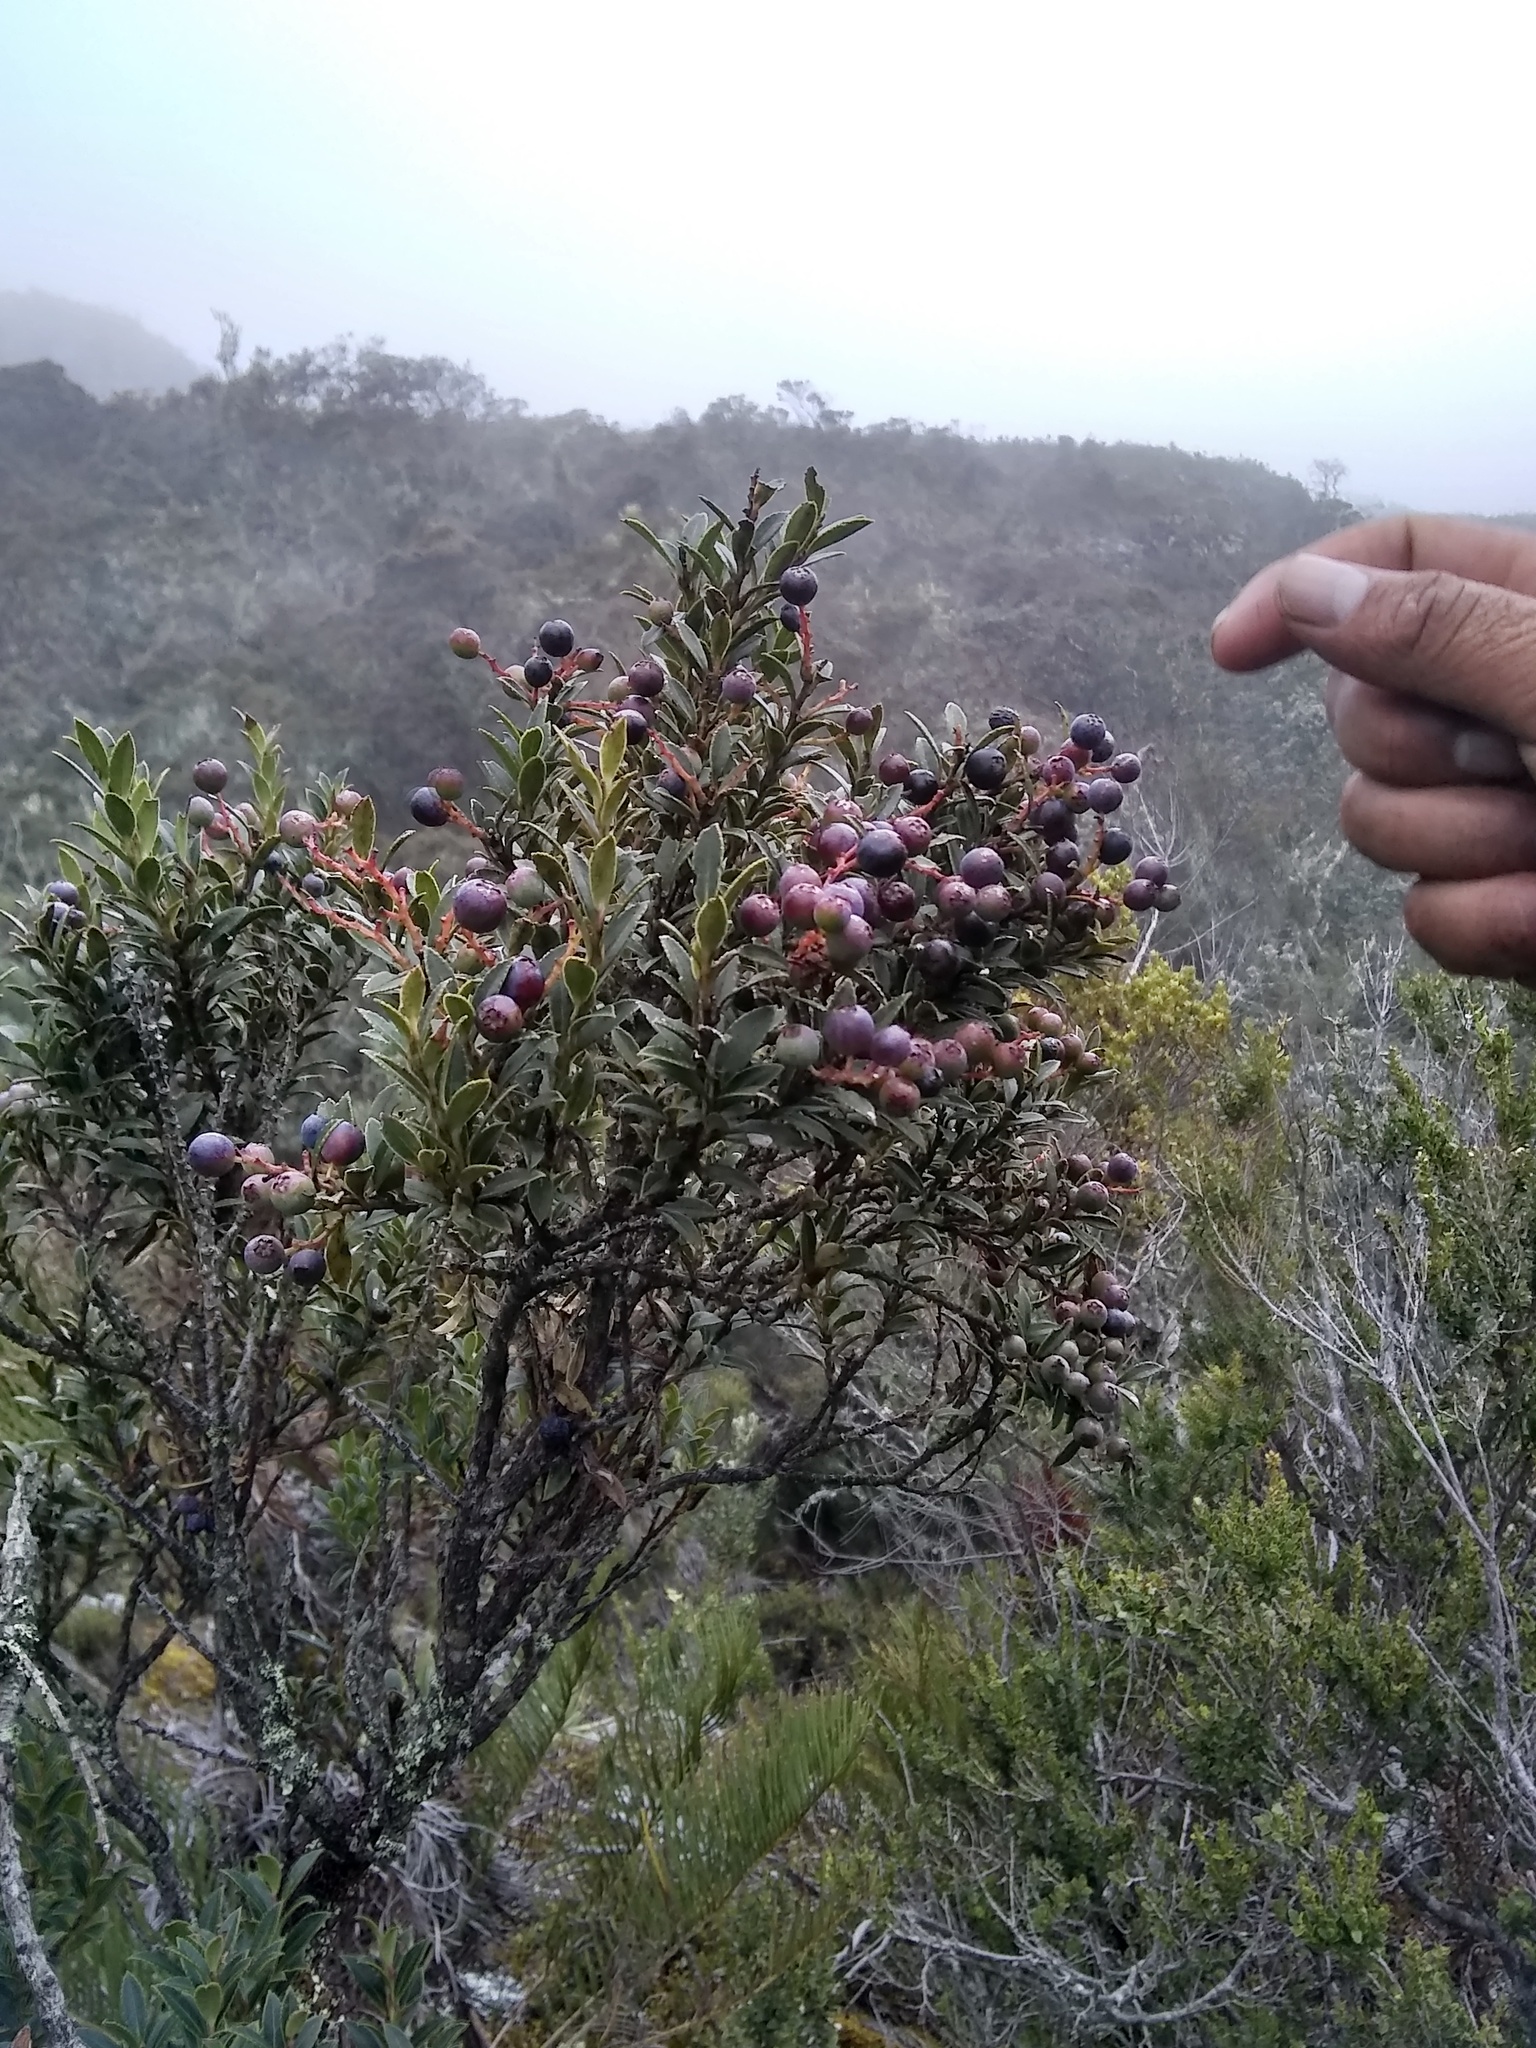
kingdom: Plantae
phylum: Tracheophyta
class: Magnoliopsida
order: Ericales
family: Ericaceae
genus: Vaccinium
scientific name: Vaccinium meridionale
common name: Andean blueberry
